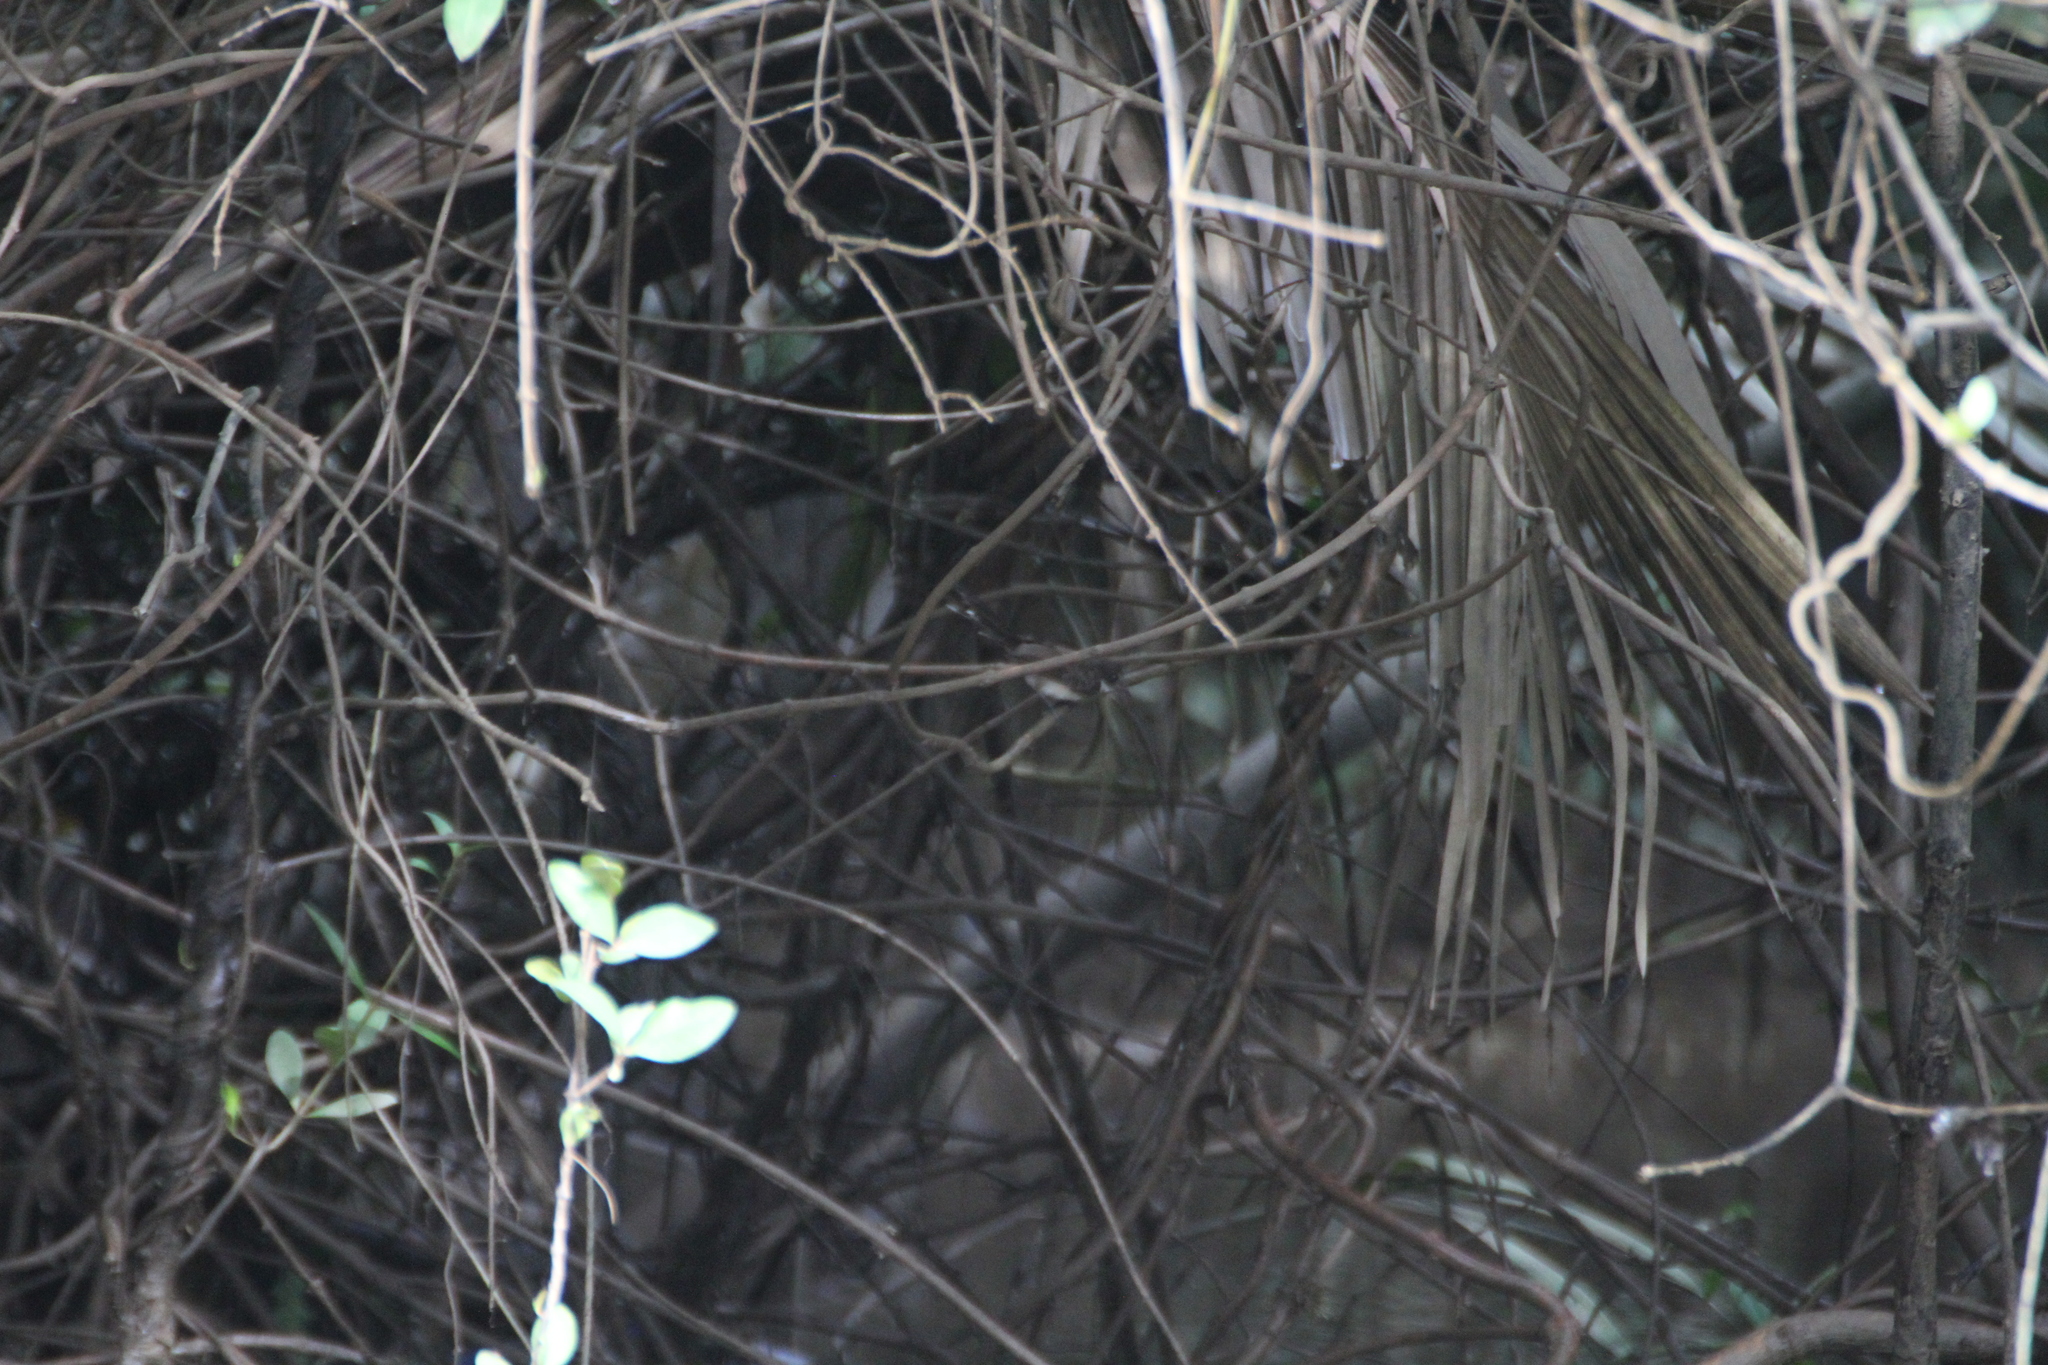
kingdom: Animalia
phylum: Chordata
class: Aves
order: Passeriformes
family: Rhipiduridae
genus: Rhipidura
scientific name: Rhipidura javanica
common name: Pied fantail
